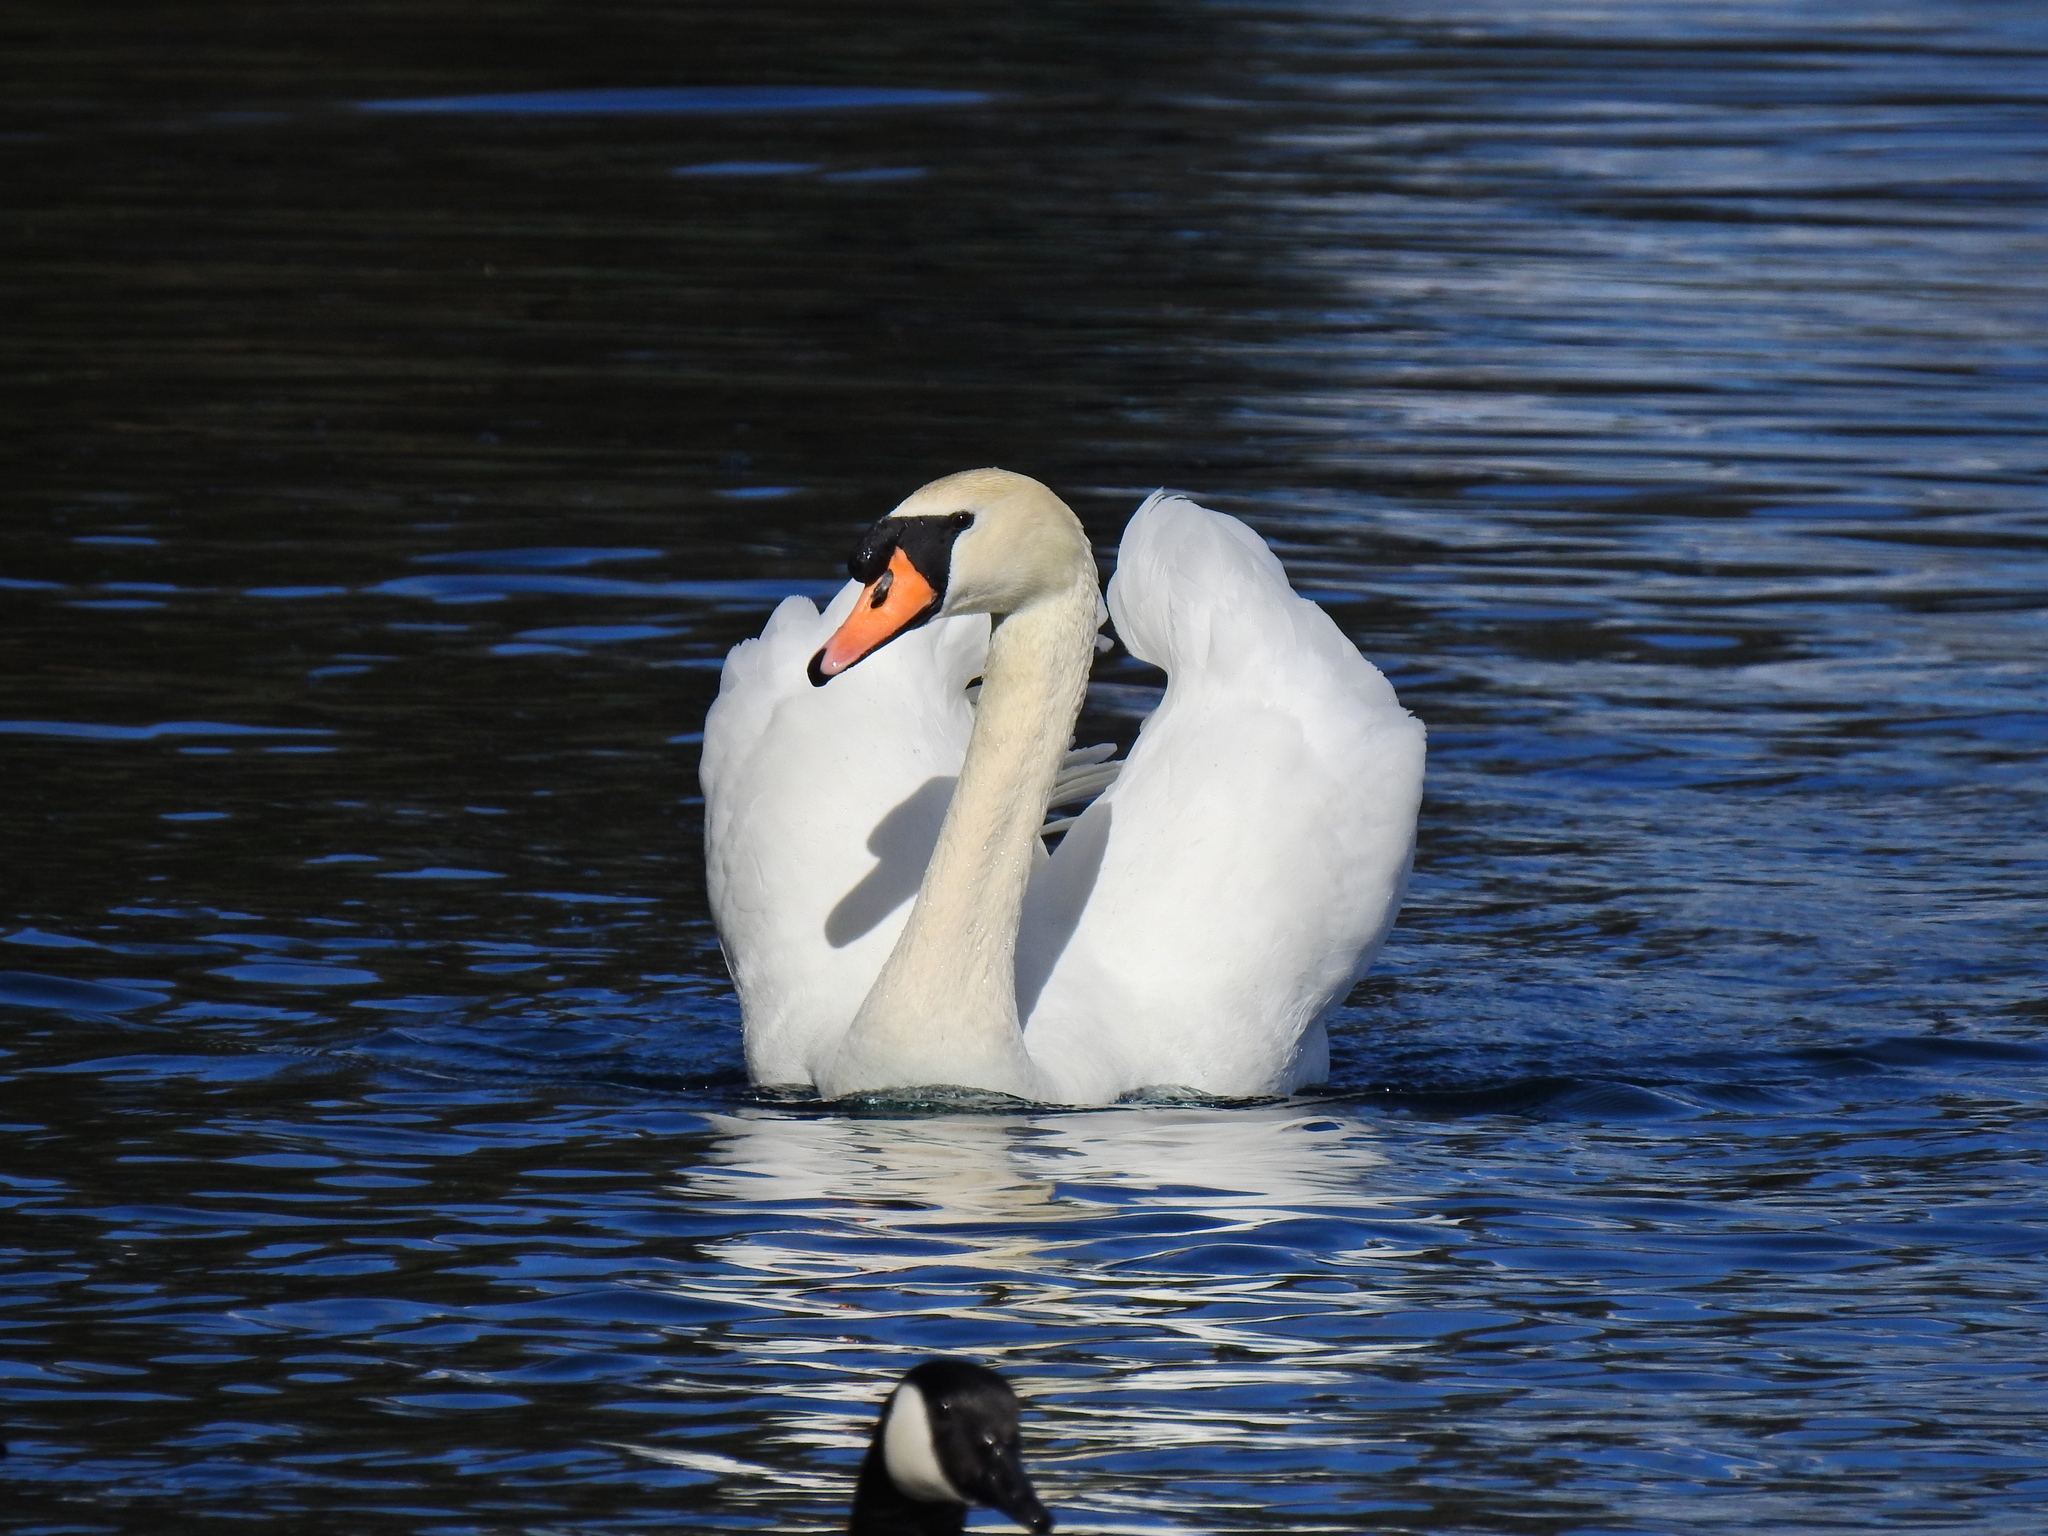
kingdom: Animalia
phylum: Chordata
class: Aves
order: Anseriformes
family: Anatidae
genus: Cygnus
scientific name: Cygnus olor
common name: Mute swan
